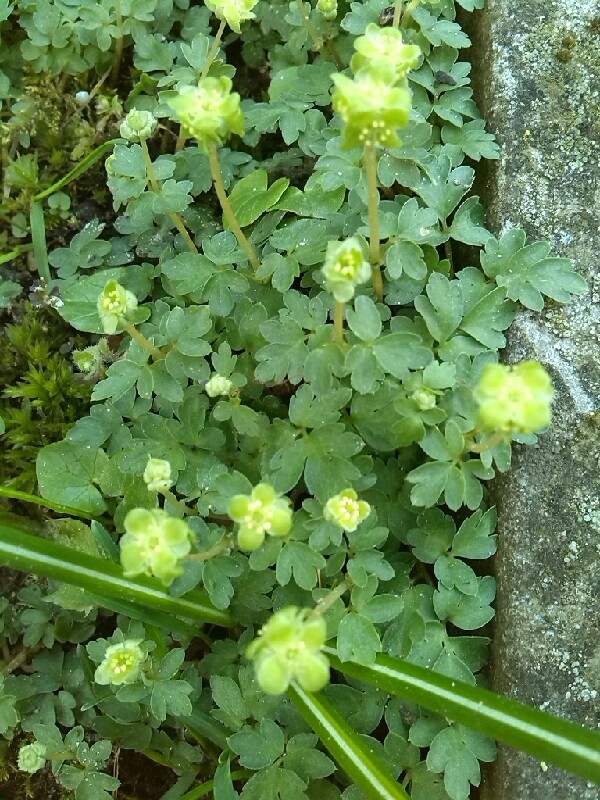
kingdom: Plantae
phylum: Tracheophyta
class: Magnoliopsida
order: Dipsacales
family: Viburnaceae
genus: Adoxa
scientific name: Adoxa moschatellina
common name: Moschatel
